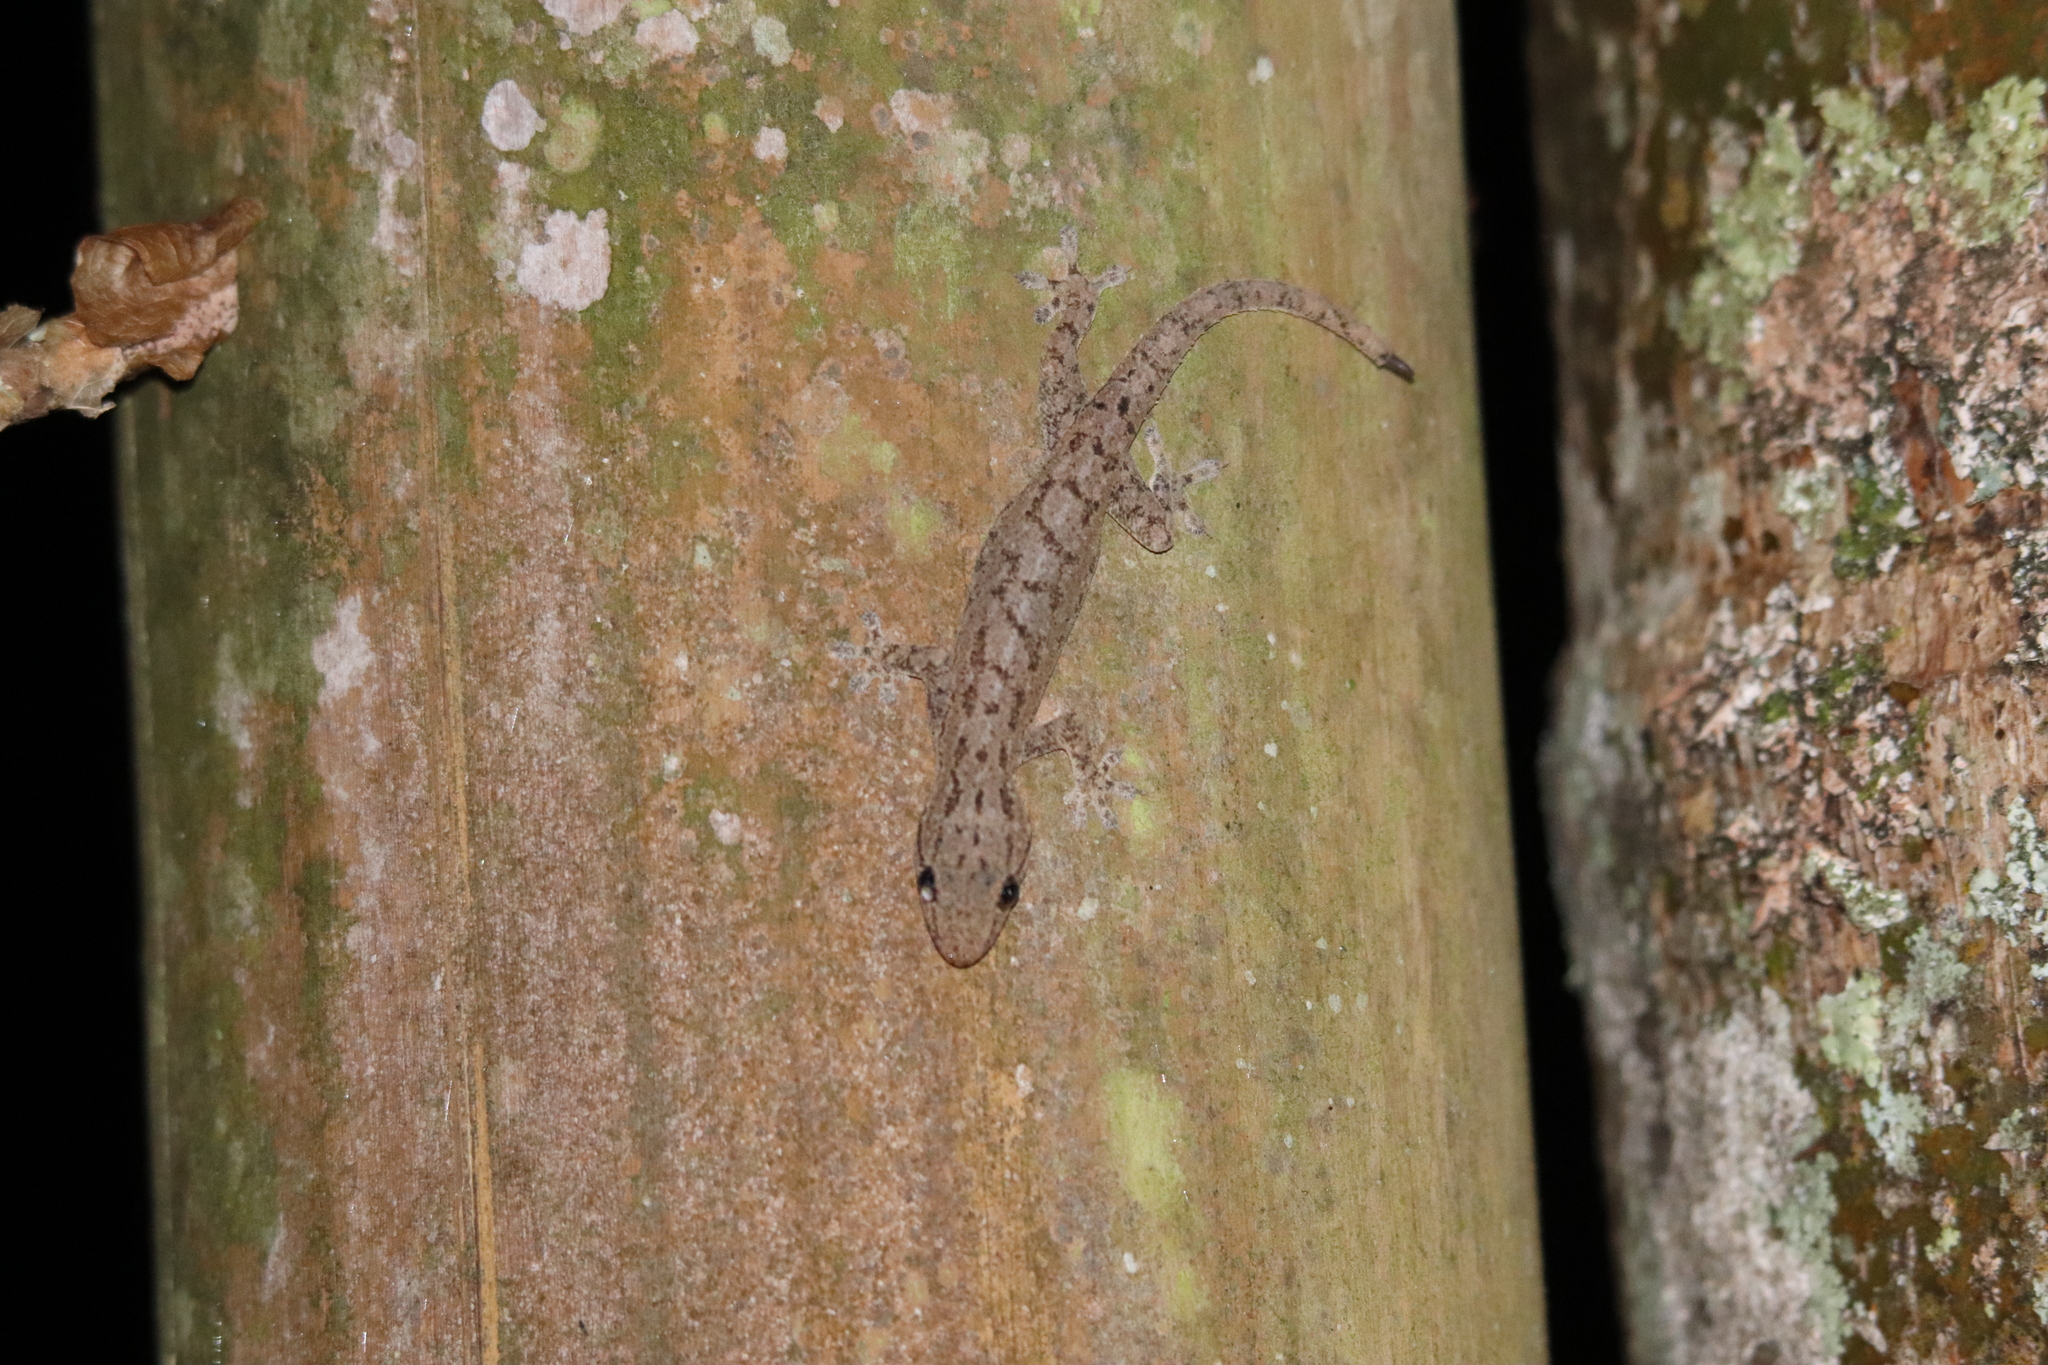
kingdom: Animalia
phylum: Chordata
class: Squamata
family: Gekkonidae
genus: Hemidactylus
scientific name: Hemidactylus frenatus
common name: Common house gecko
